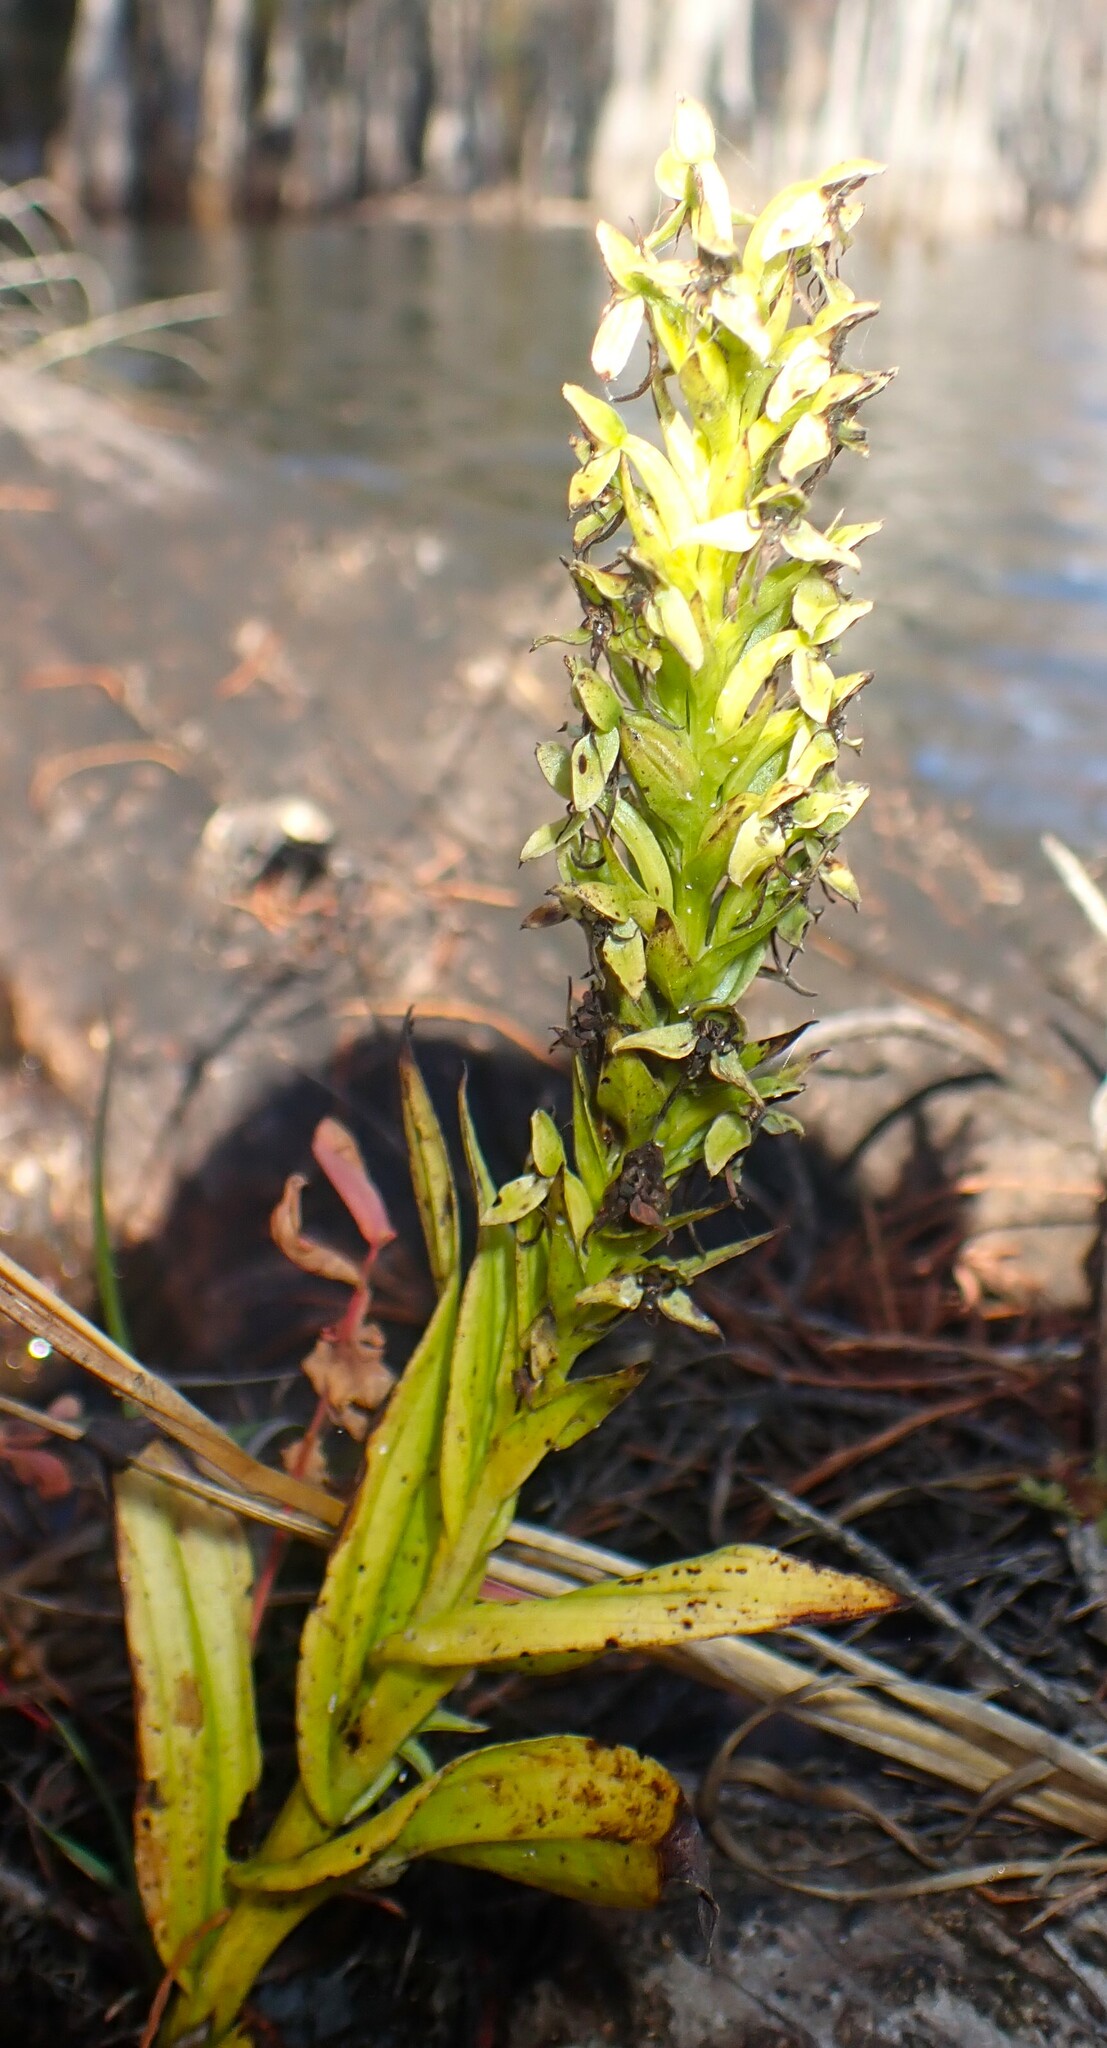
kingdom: Plantae
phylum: Tracheophyta
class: Liliopsida
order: Asparagales
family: Orchidaceae
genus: Habenaria
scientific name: Habenaria repens
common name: Water orchid
